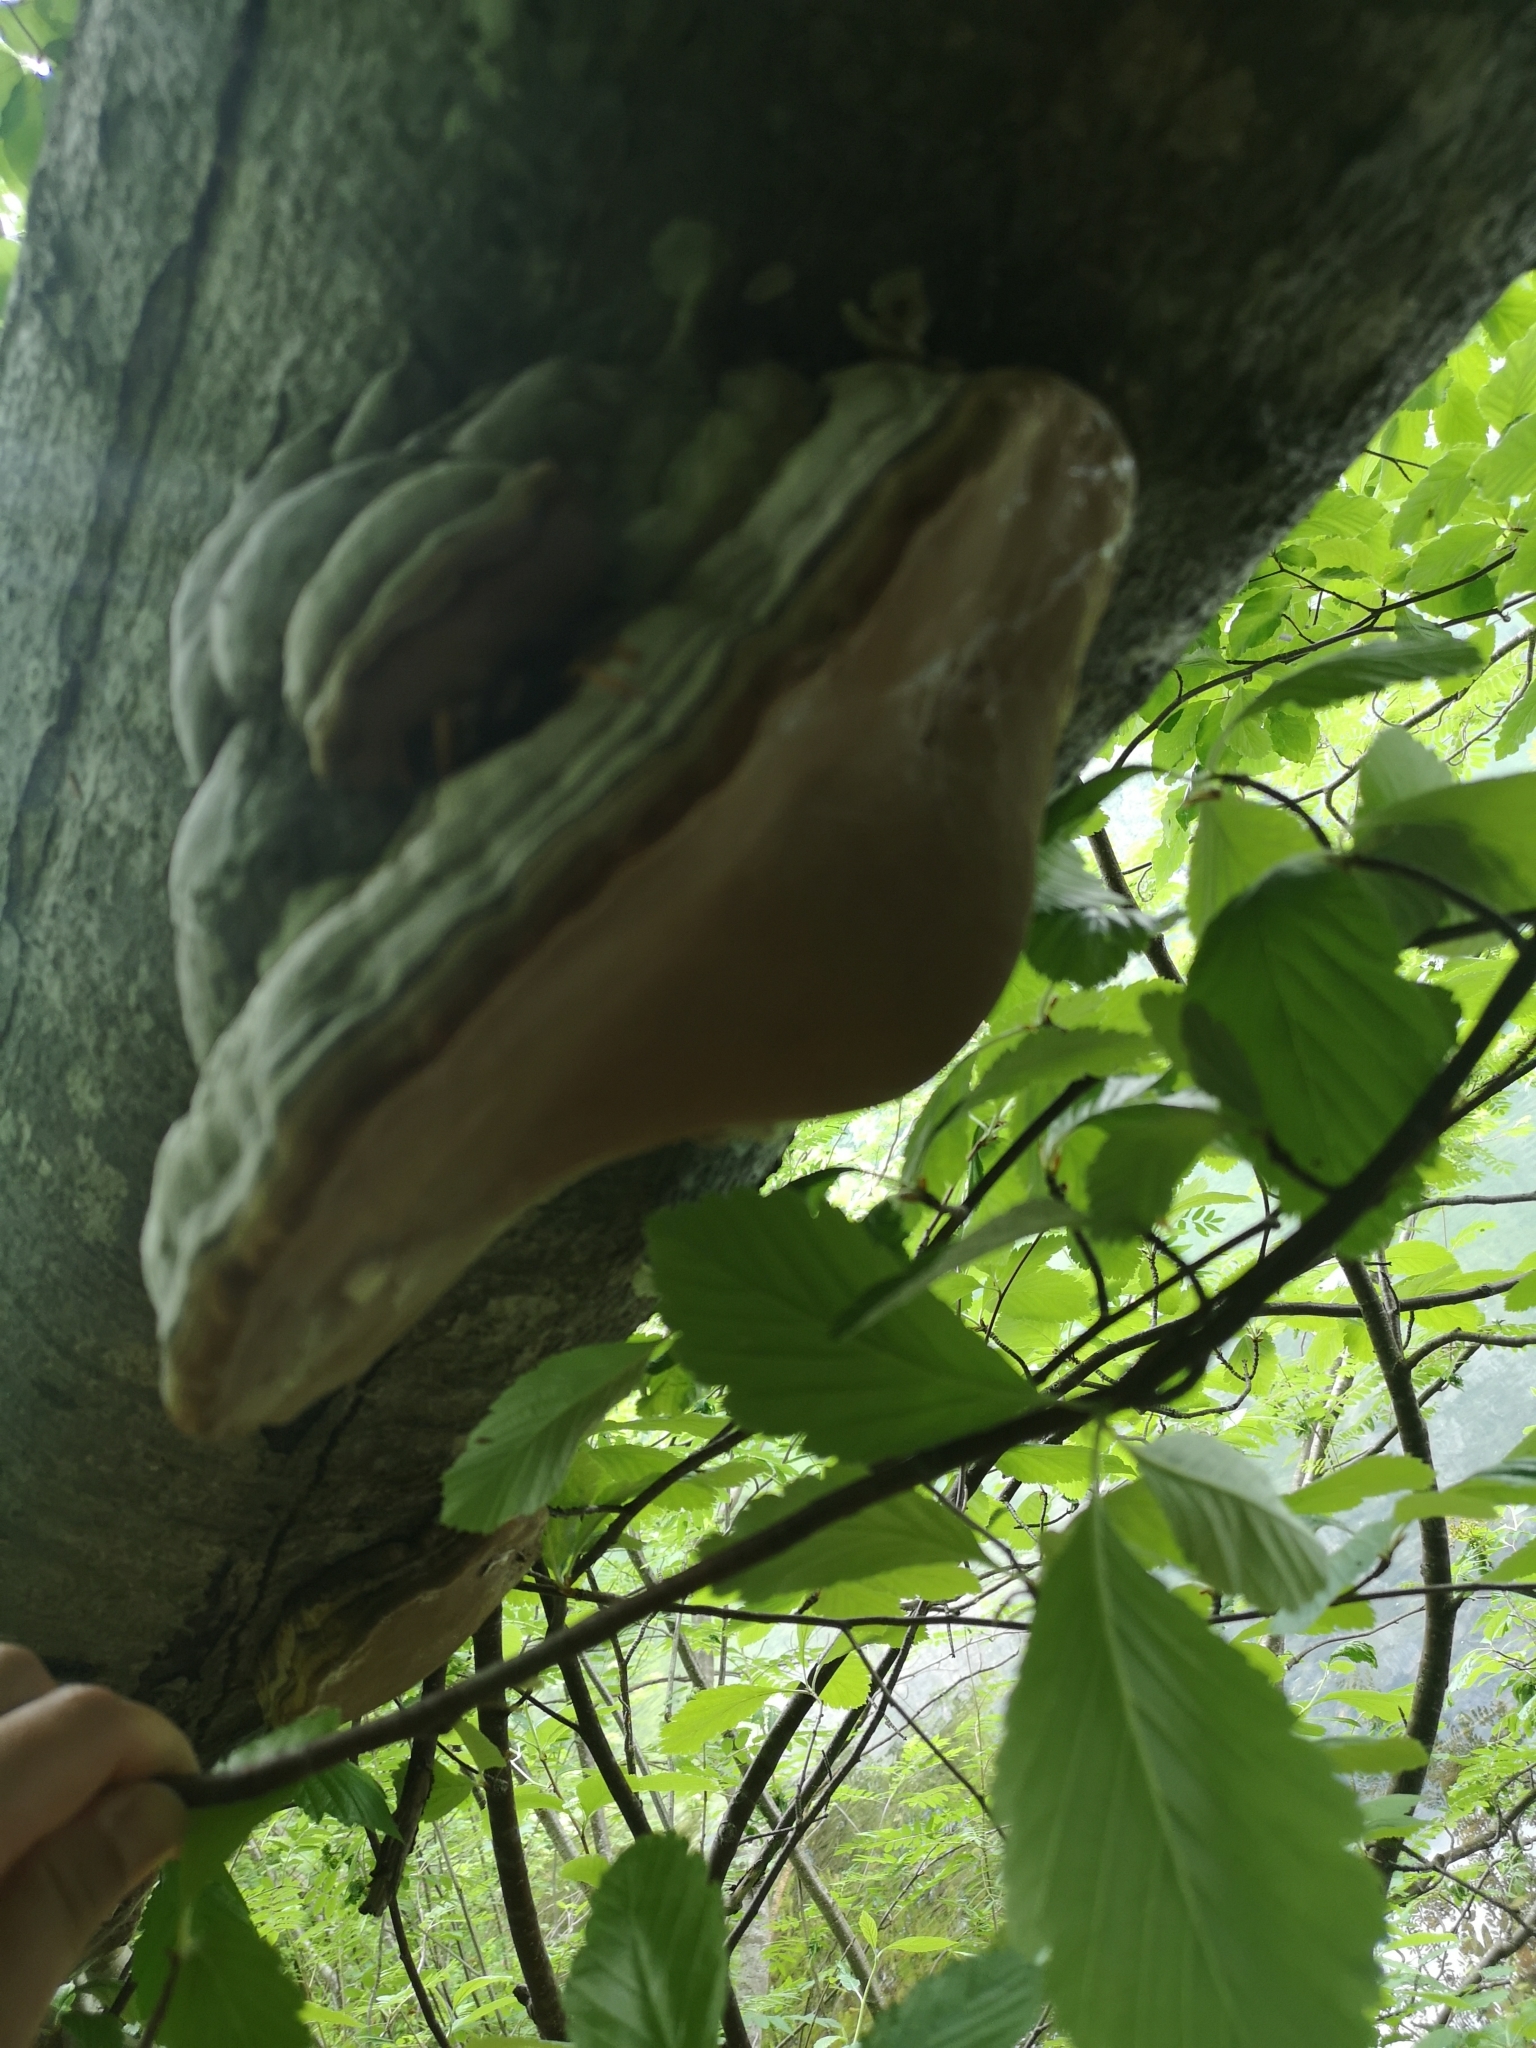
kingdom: Fungi
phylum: Basidiomycota
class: Agaricomycetes
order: Polyporales
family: Polyporaceae
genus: Fomes
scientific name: Fomes fomentarius
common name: Hoof fungus
